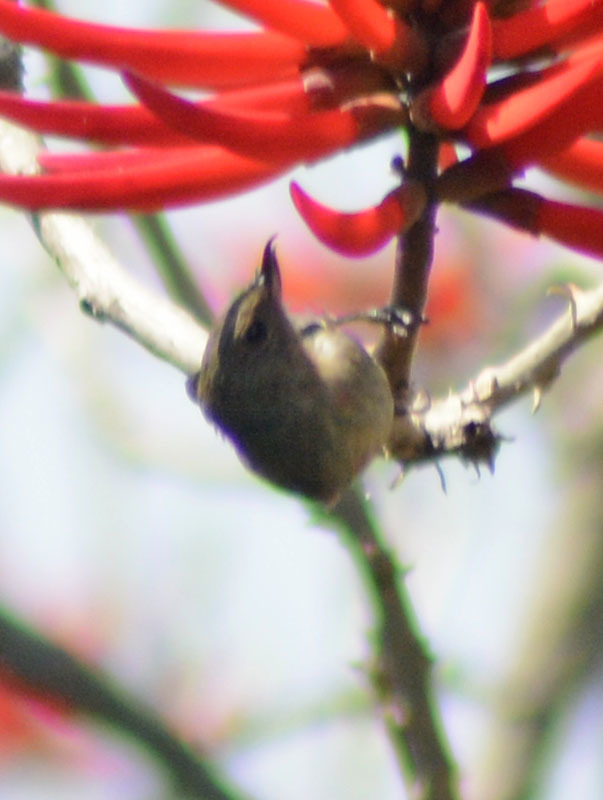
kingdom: Animalia
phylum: Chordata
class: Aves
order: Passeriformes
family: Thraupidae
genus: Diglossa
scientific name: Diglossa baritula
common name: Cinnamon-bellied flowerpiercer
